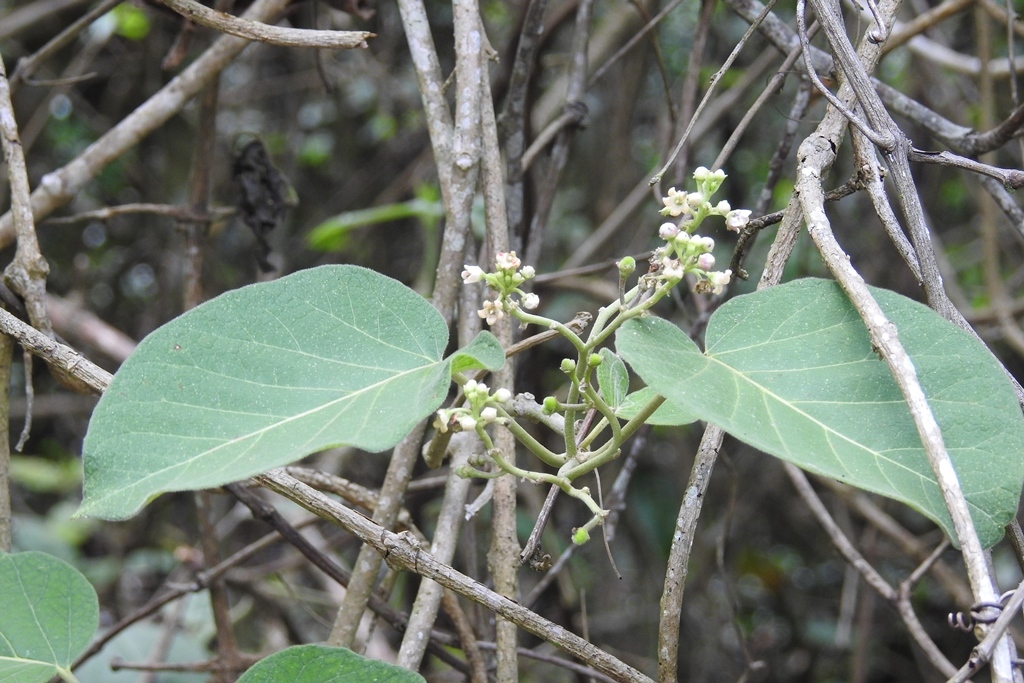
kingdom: Plantae
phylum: Tracheophyta
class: Magnoliopsida
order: Gentianales
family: Apocynaceae
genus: Ruehssia
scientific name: Ruehssia mexicana
